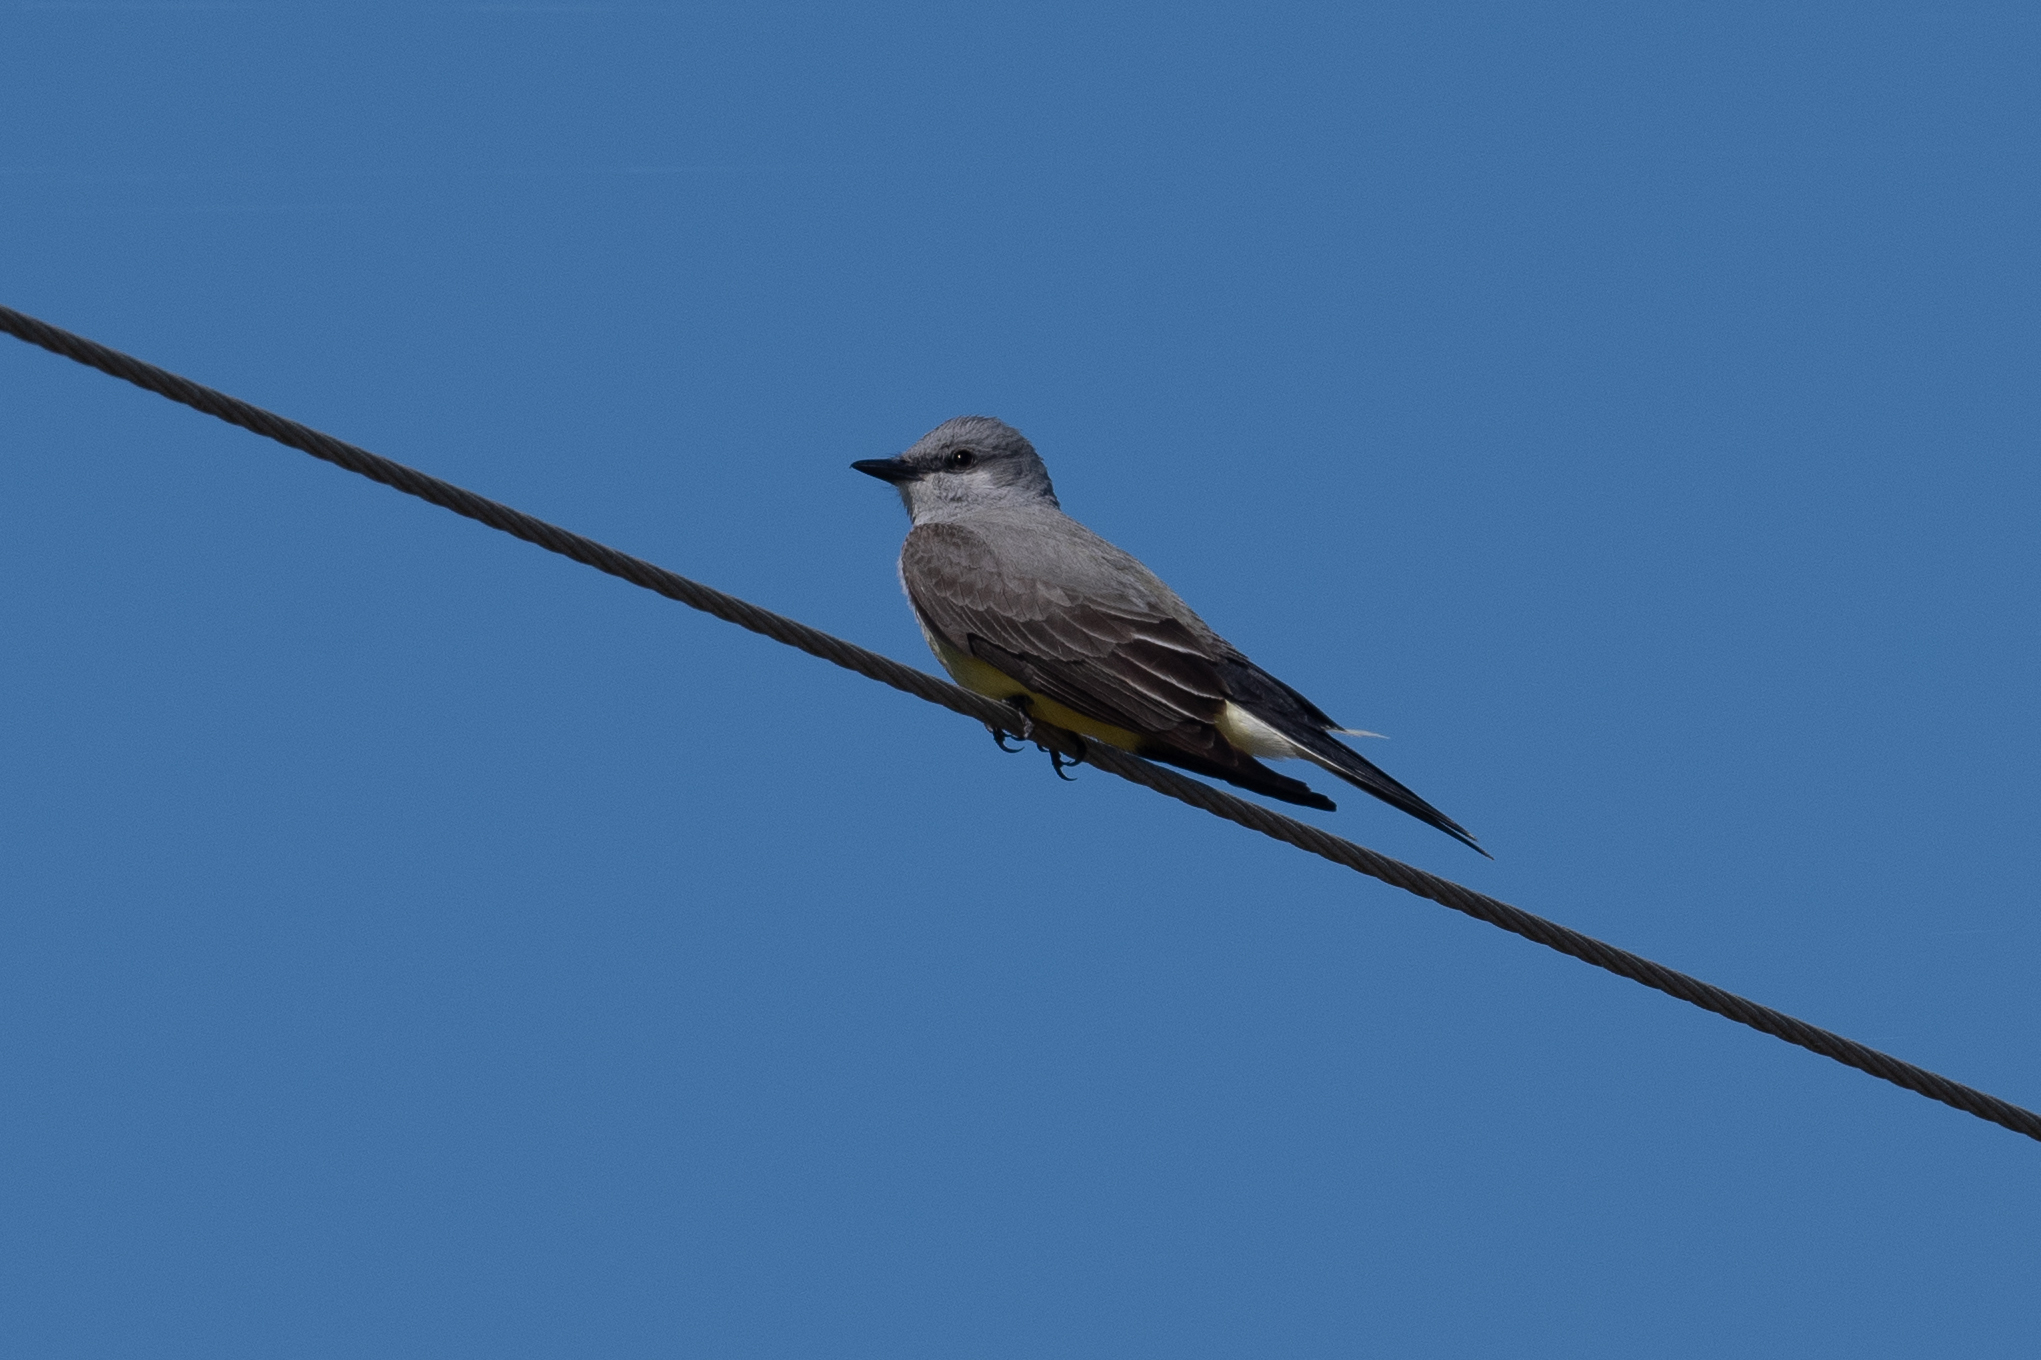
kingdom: Animalia
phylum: Chordata
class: Aves
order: Passeriformes
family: Tyrannidae
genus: Tyrannus
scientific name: Tyrannus verticalis
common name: Western kingbird
